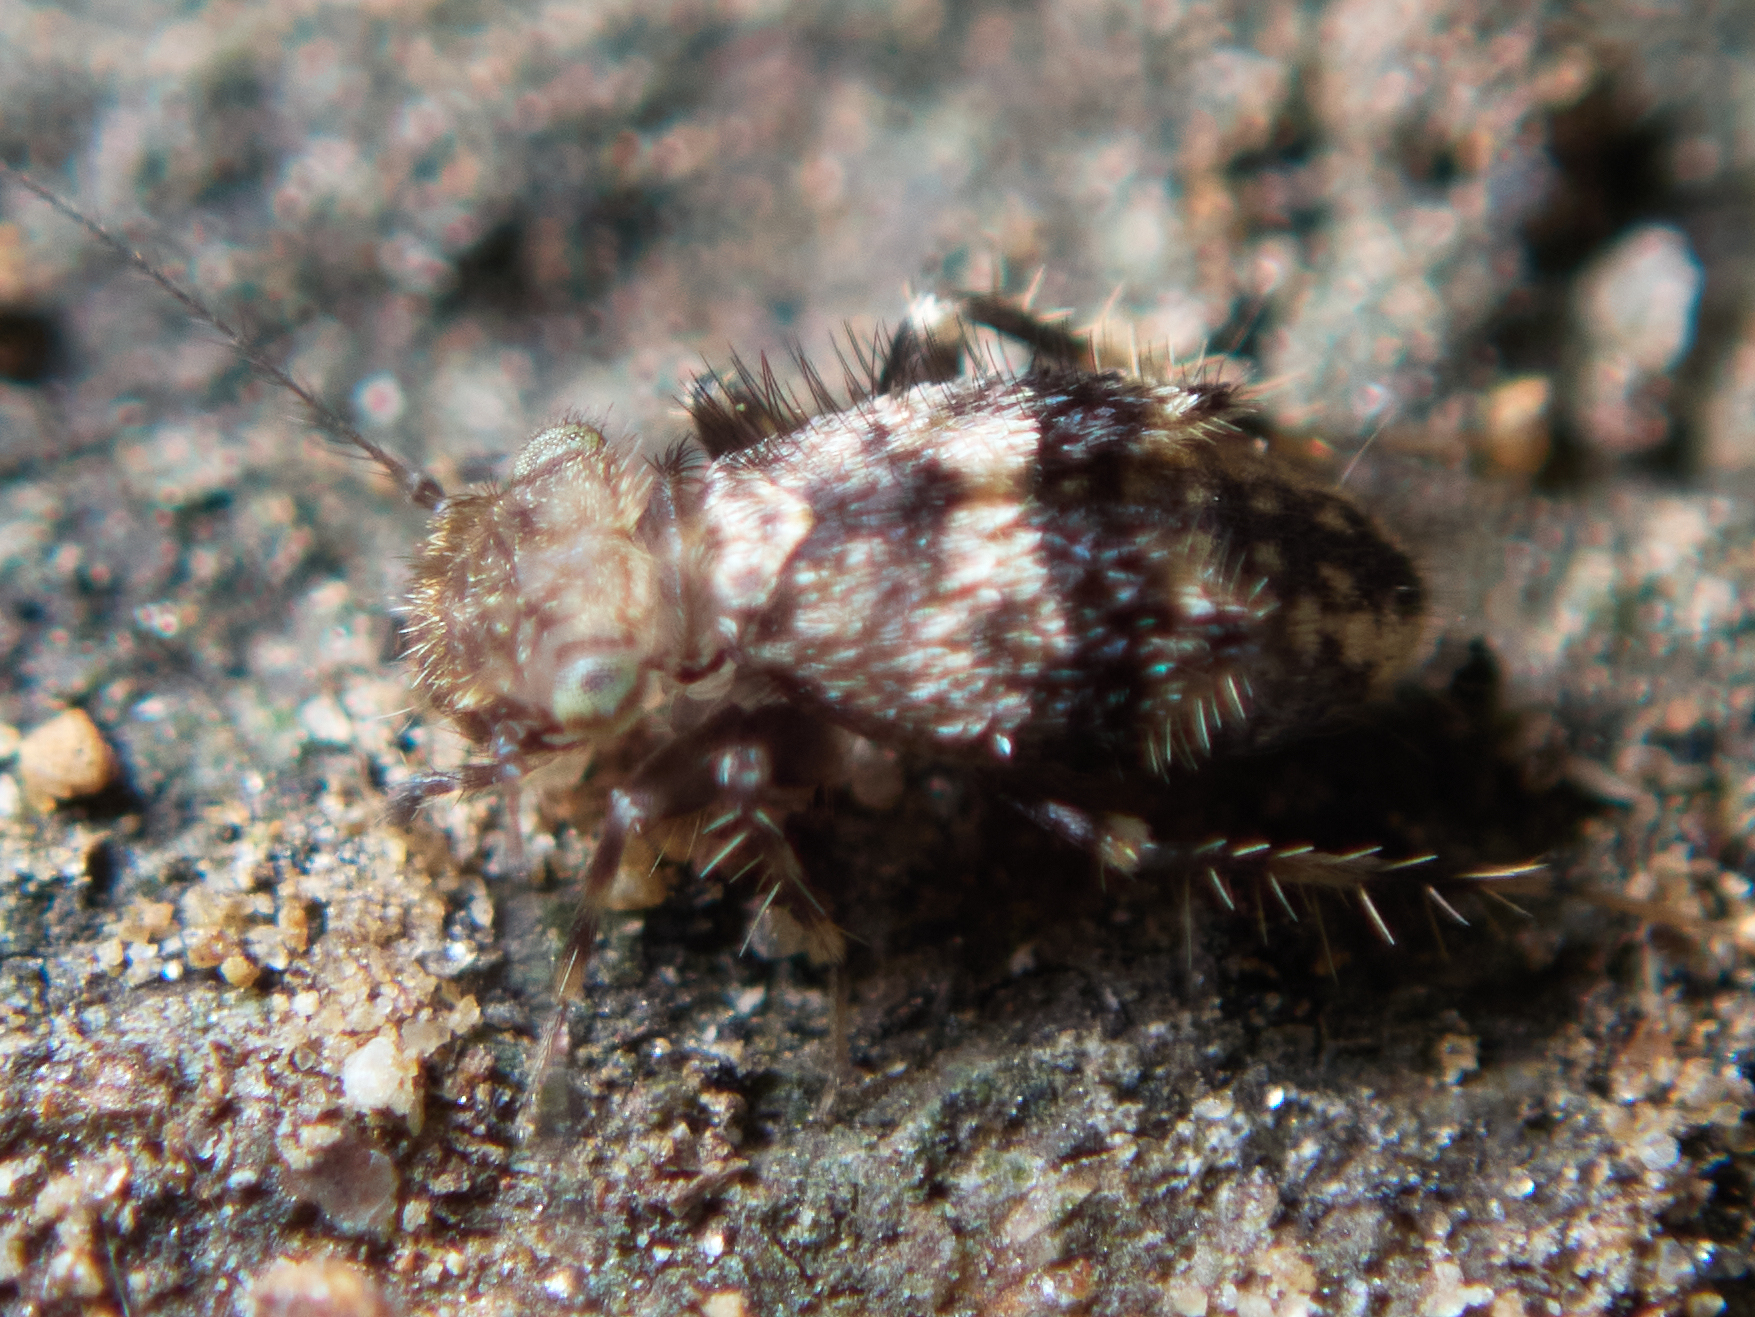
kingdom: Animalia
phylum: Arthropoda
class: Insecta
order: Psocodea
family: Lepidopsocidae
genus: Pteroxanium
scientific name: Pteroxanium kelloggi
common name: Bark lice
